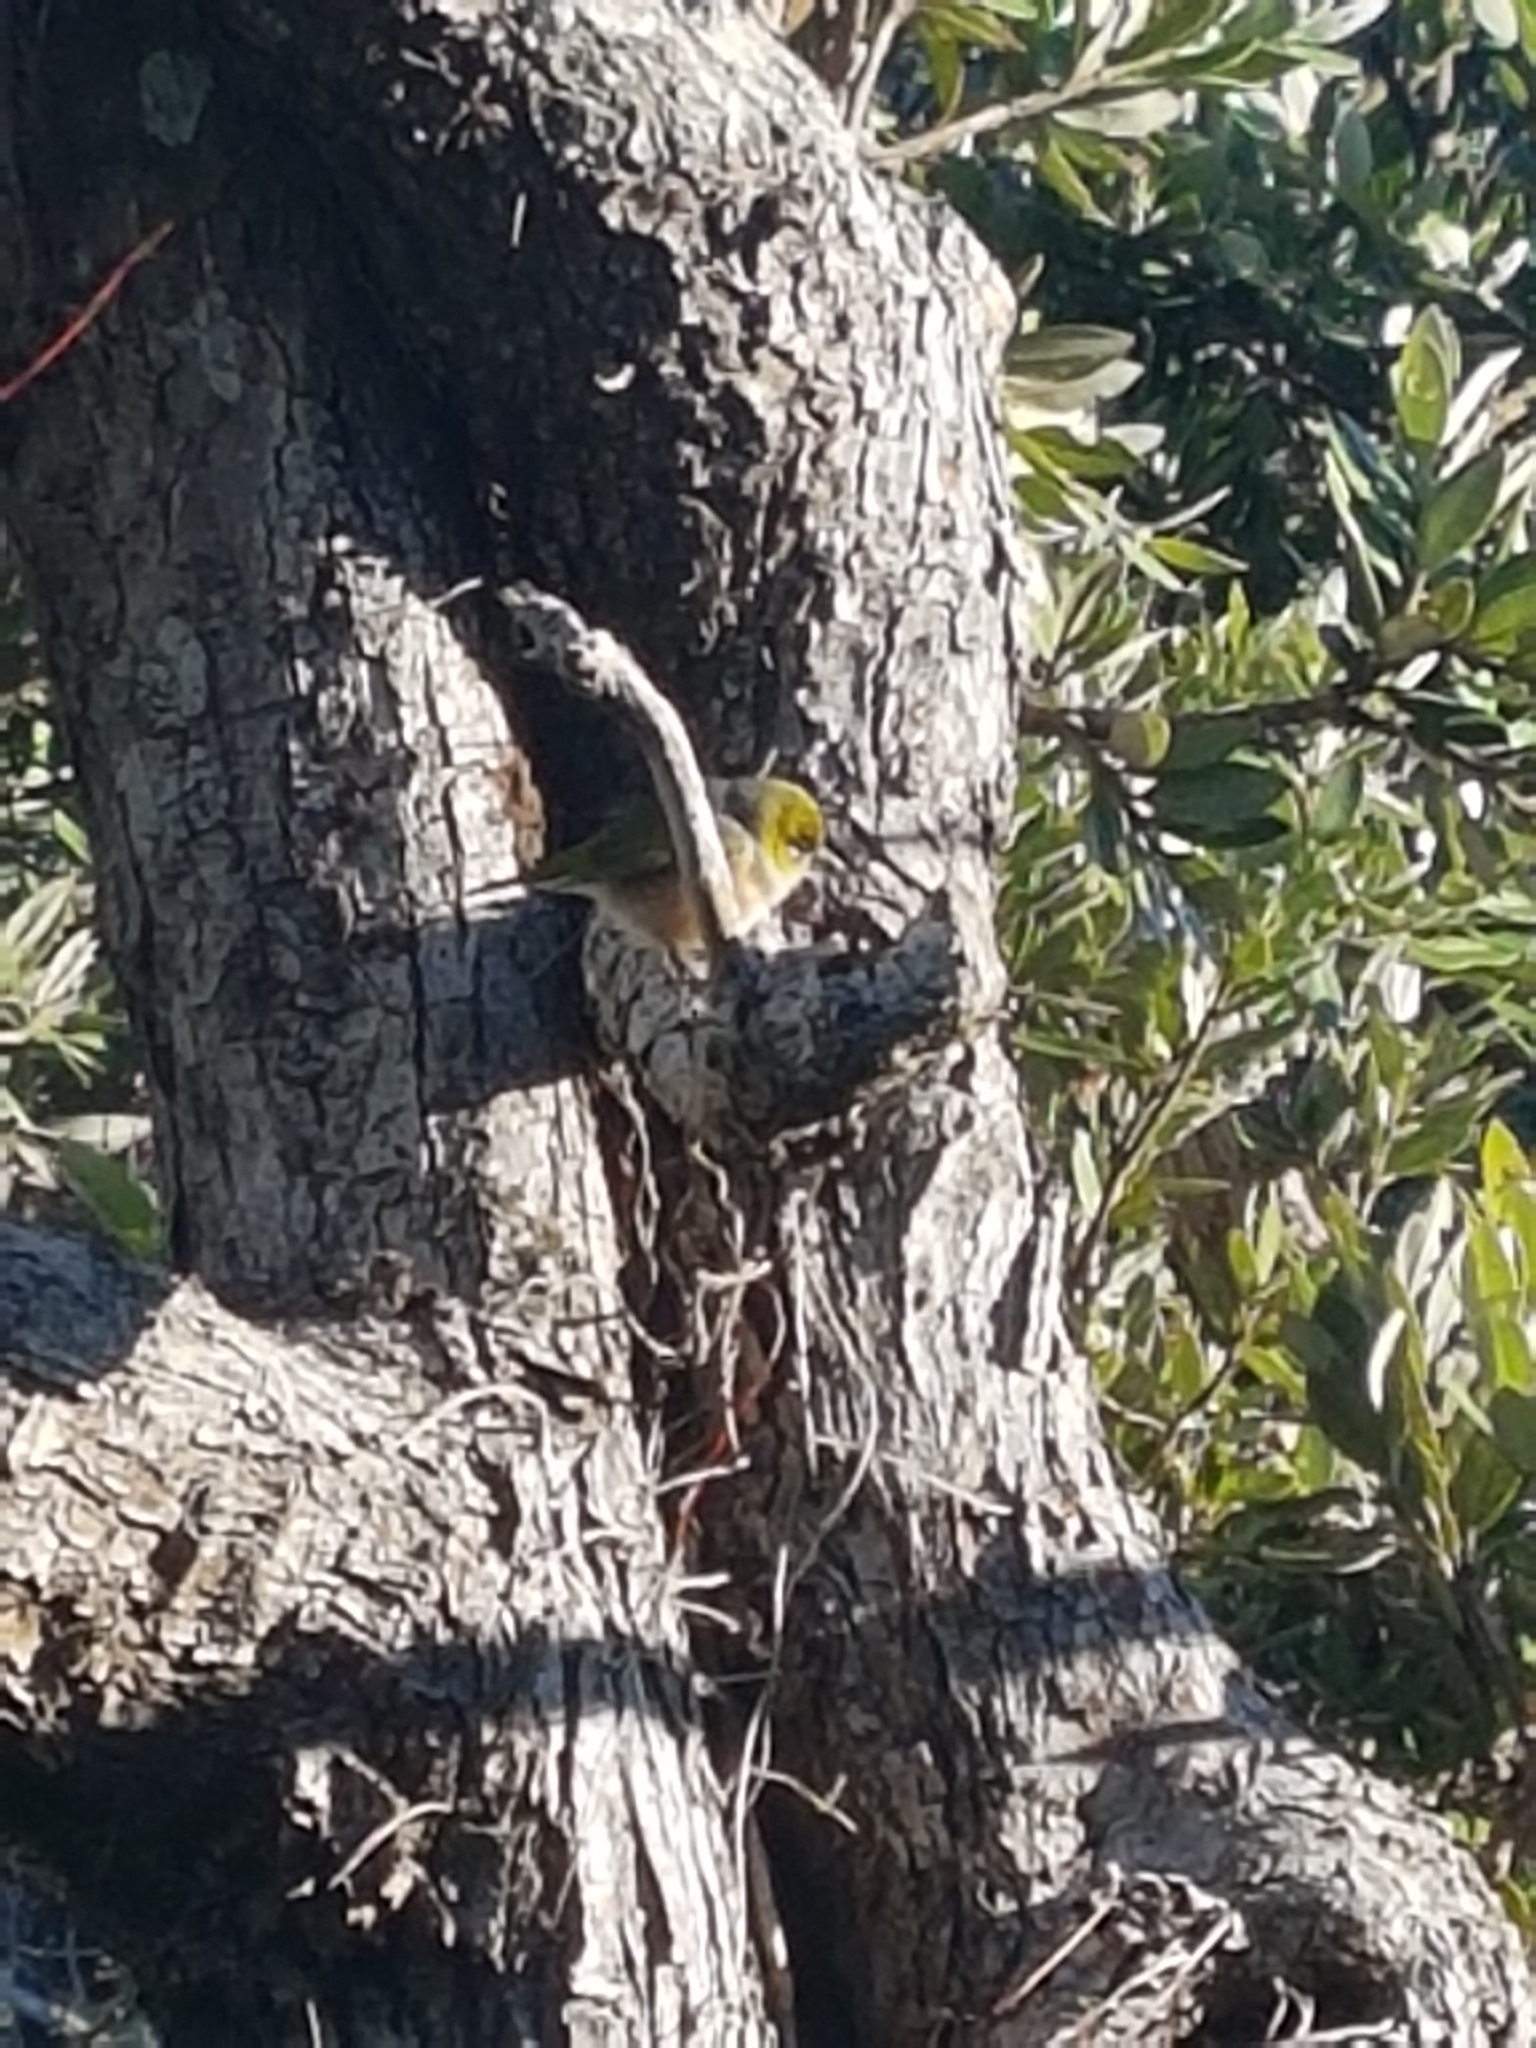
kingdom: Animalia
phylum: Chordata
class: Aves
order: Passeriformes
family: Zosteropidae
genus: Zosterops
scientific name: Zosterops lateralis
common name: Silvereye
